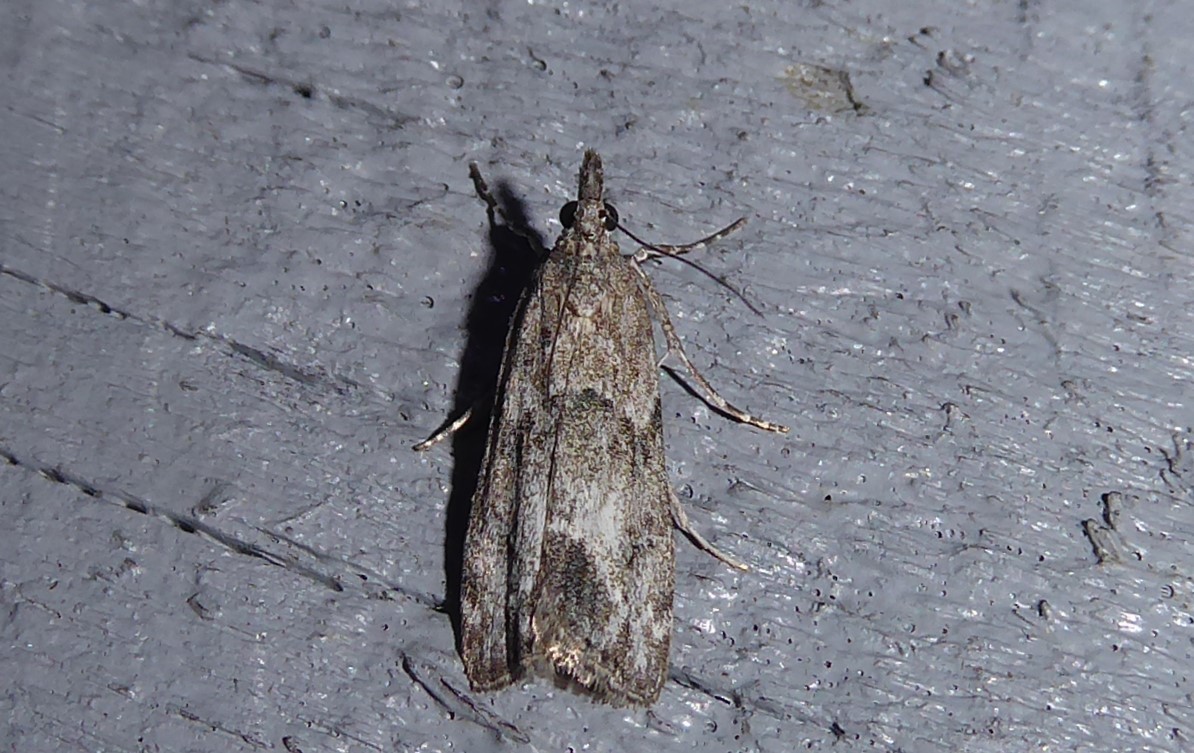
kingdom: Animalia
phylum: Arthropoda
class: Insecta
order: Lepidoptera
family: Crambidae
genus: Eudonia
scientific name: Eudonia rakaiensis
